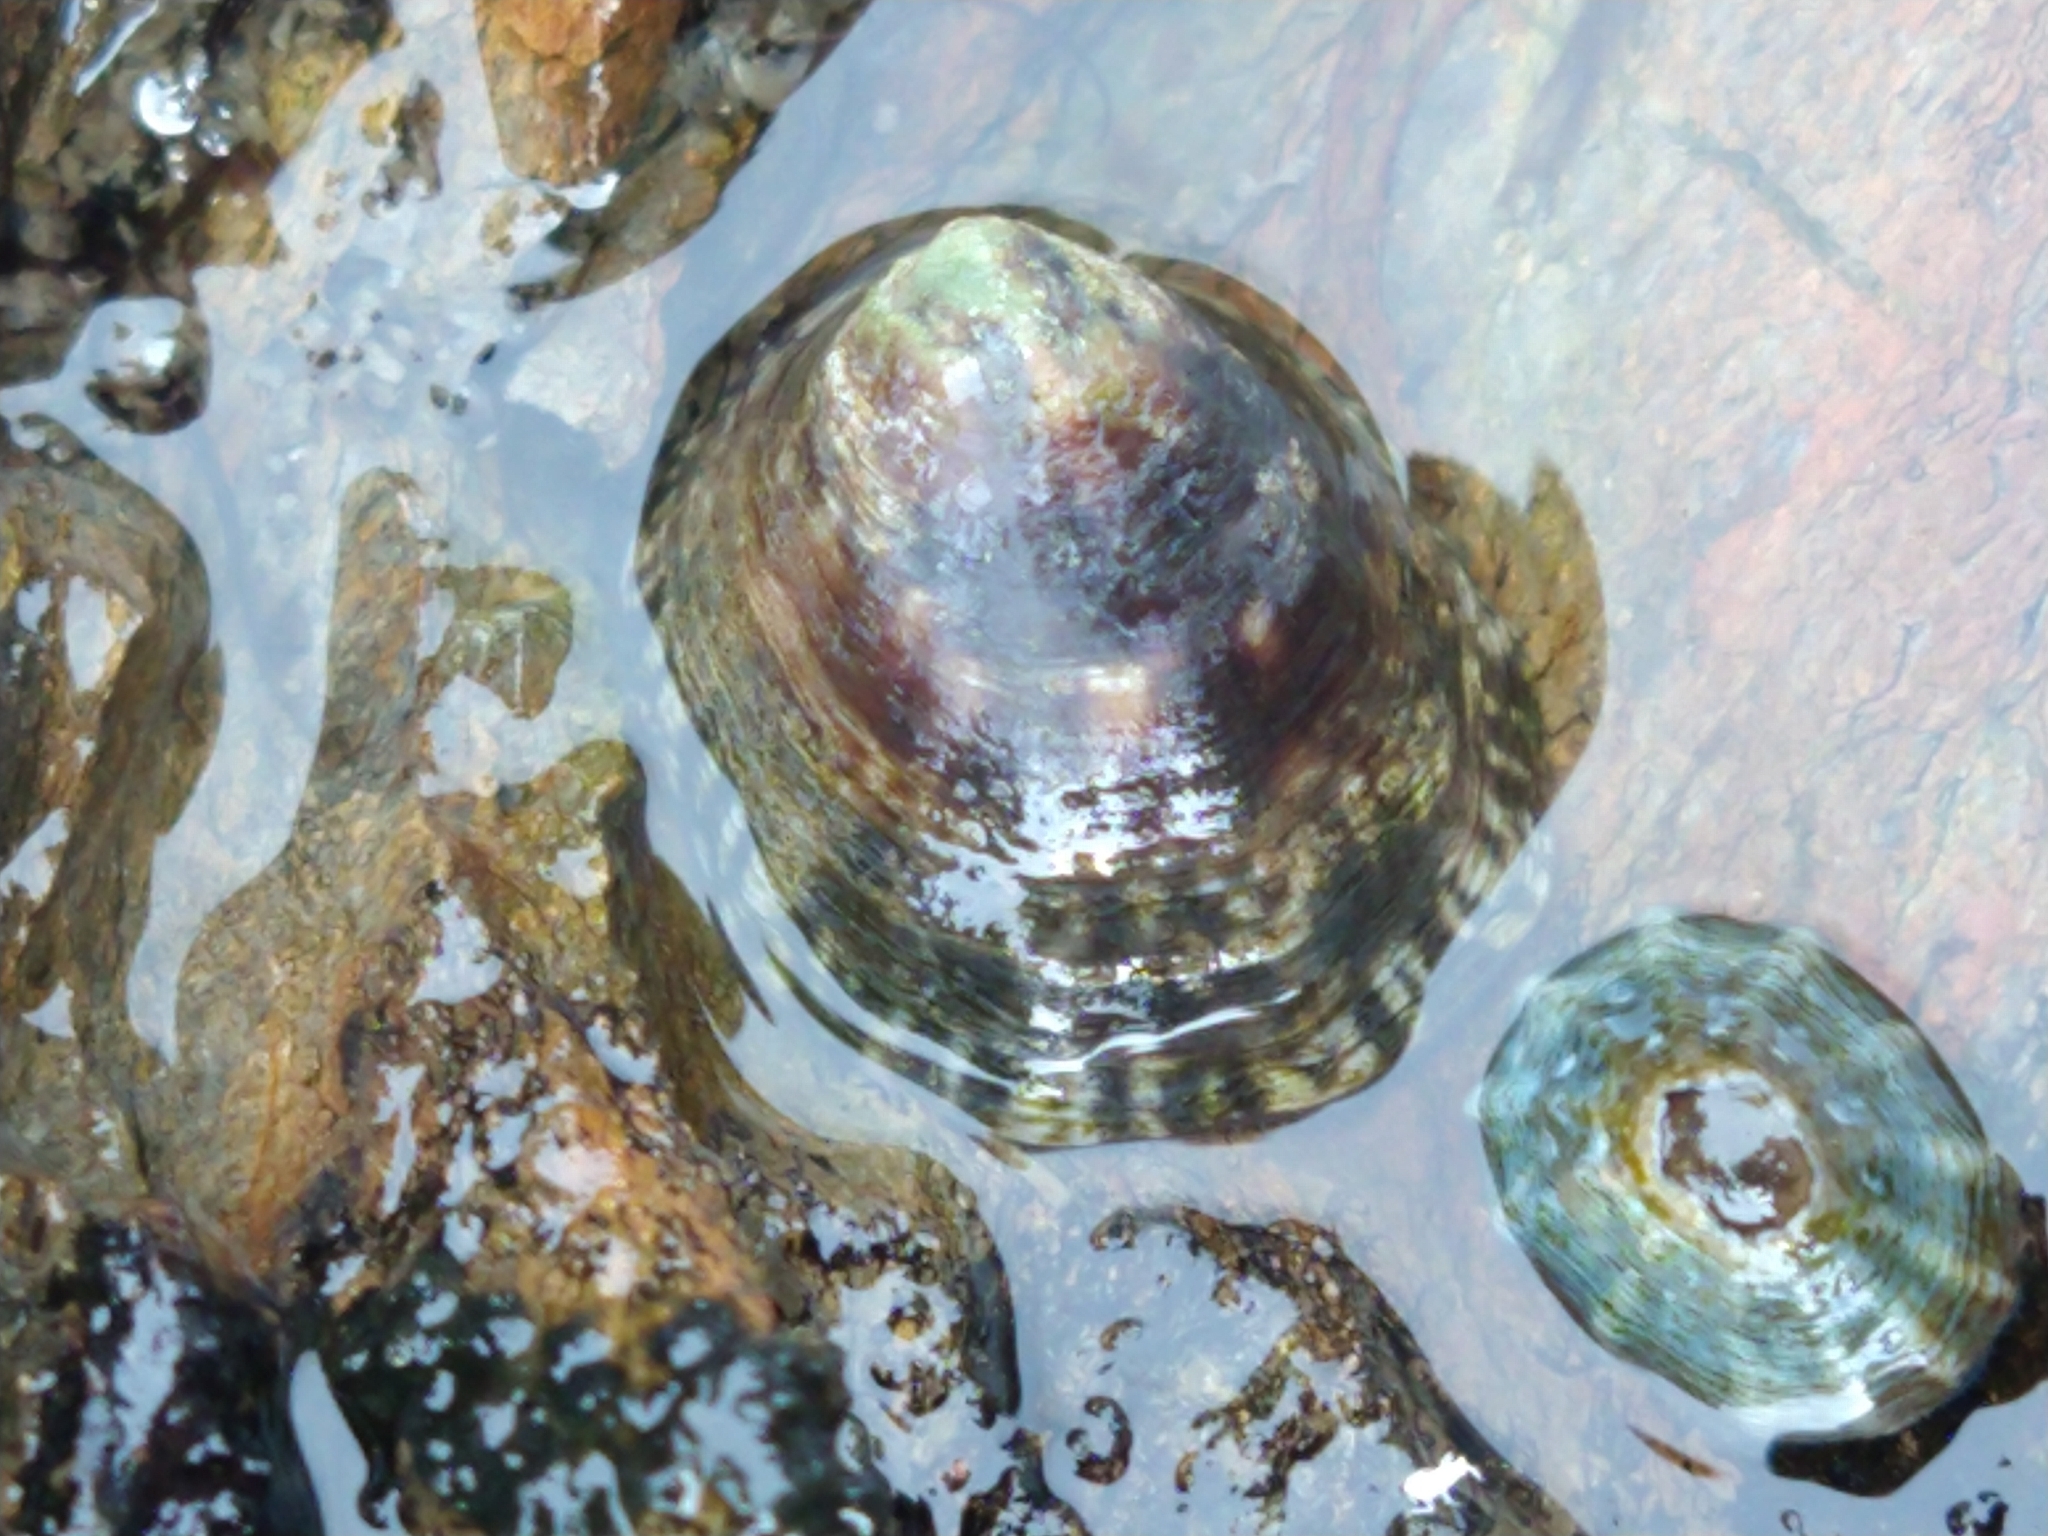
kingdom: Animalia
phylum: Mollusca
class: Gastropoda
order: Siphonariida
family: Siphonariidae
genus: Siphonaria
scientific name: Siphonaria lessonii
